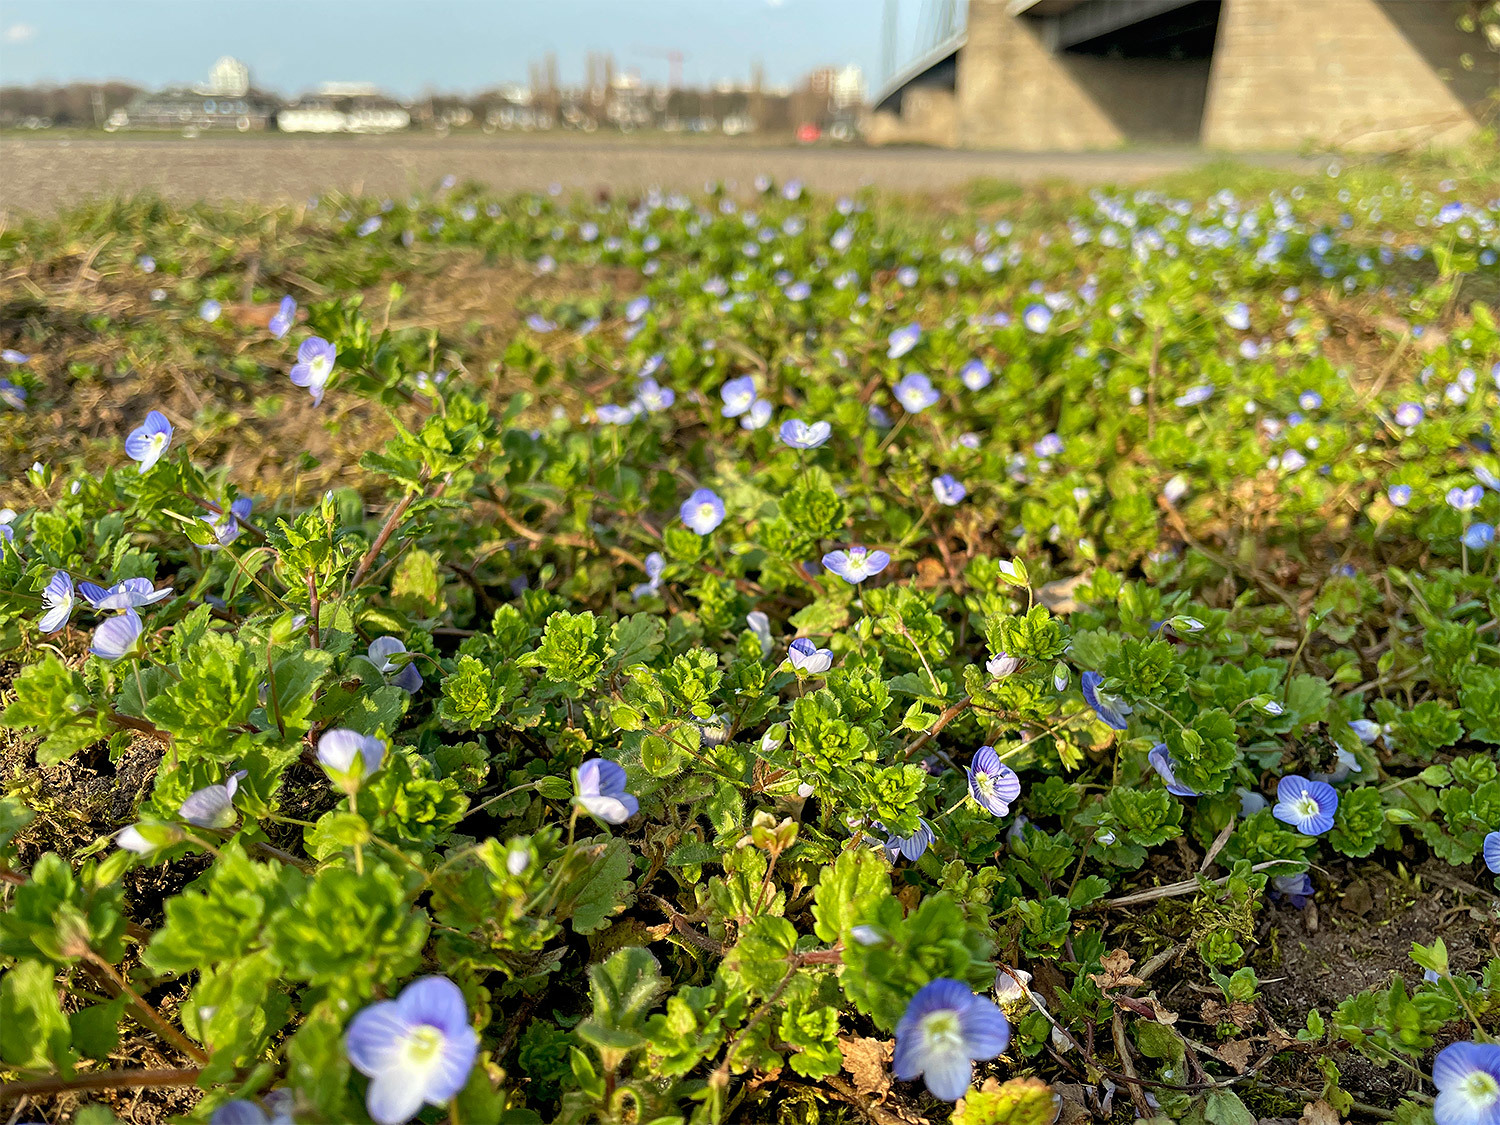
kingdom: Plantae
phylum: Tracheophyta
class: Magnoliopsida
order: Lamiales
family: Plantaginaceae
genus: Veronica
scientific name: Veronica persica
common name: Common field-speedwell
